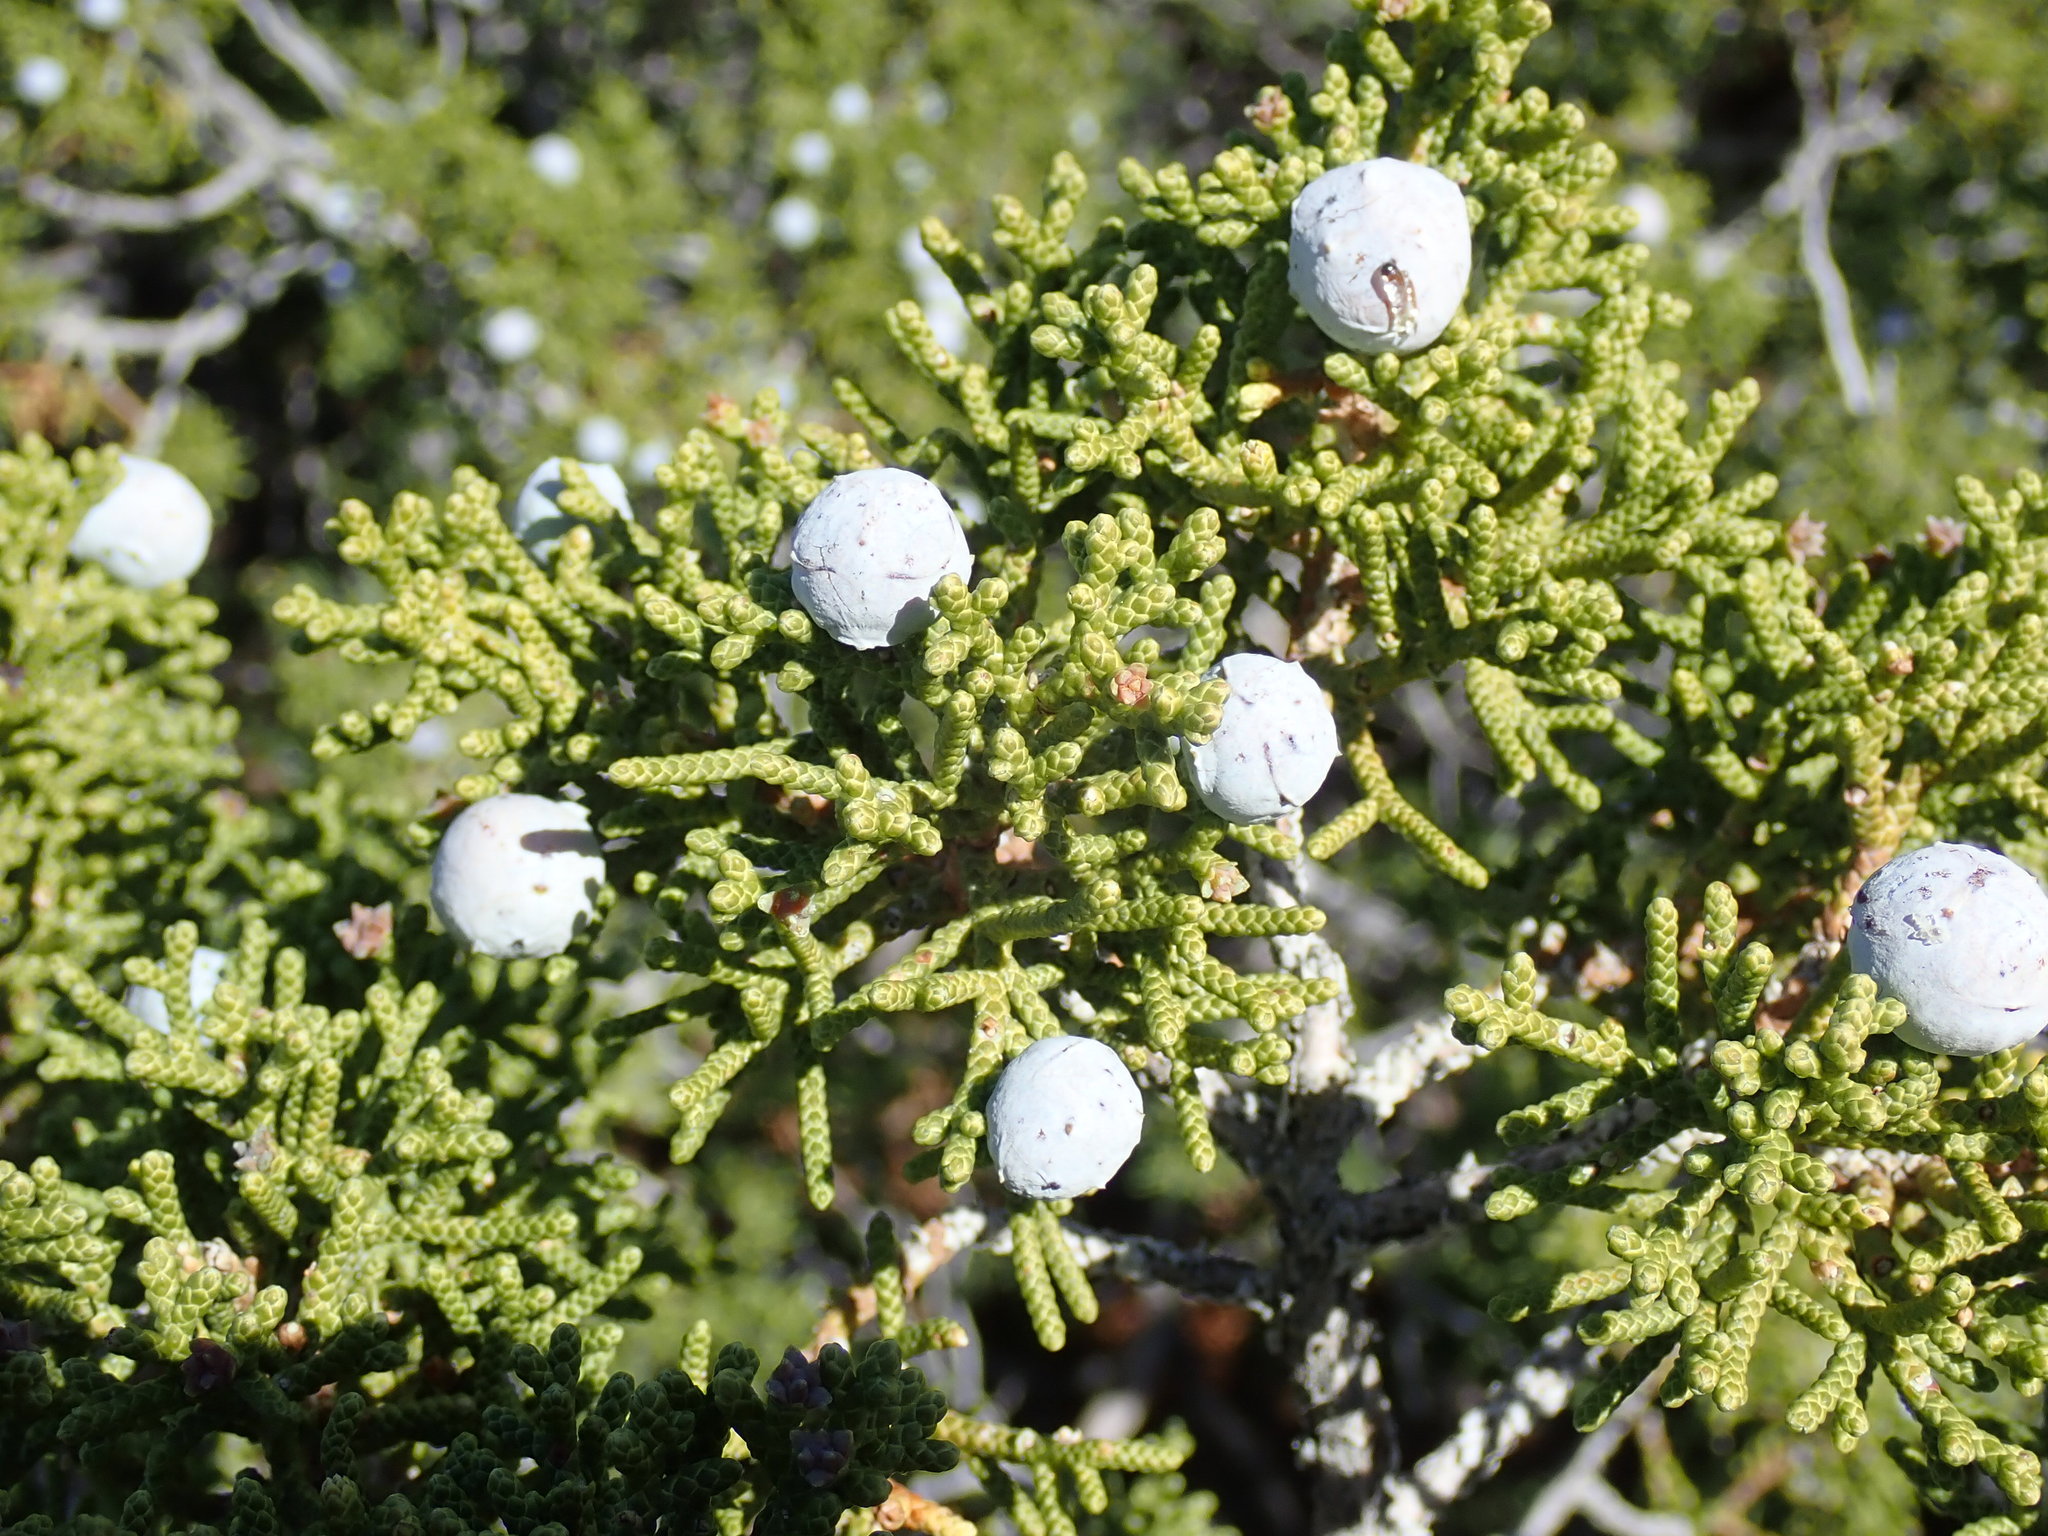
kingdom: Plantae
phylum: Tracheophyta
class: Pinopsida
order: Pinales
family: Cupressaceae
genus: Juniperus
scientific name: Juniperus californica
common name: California juniper
